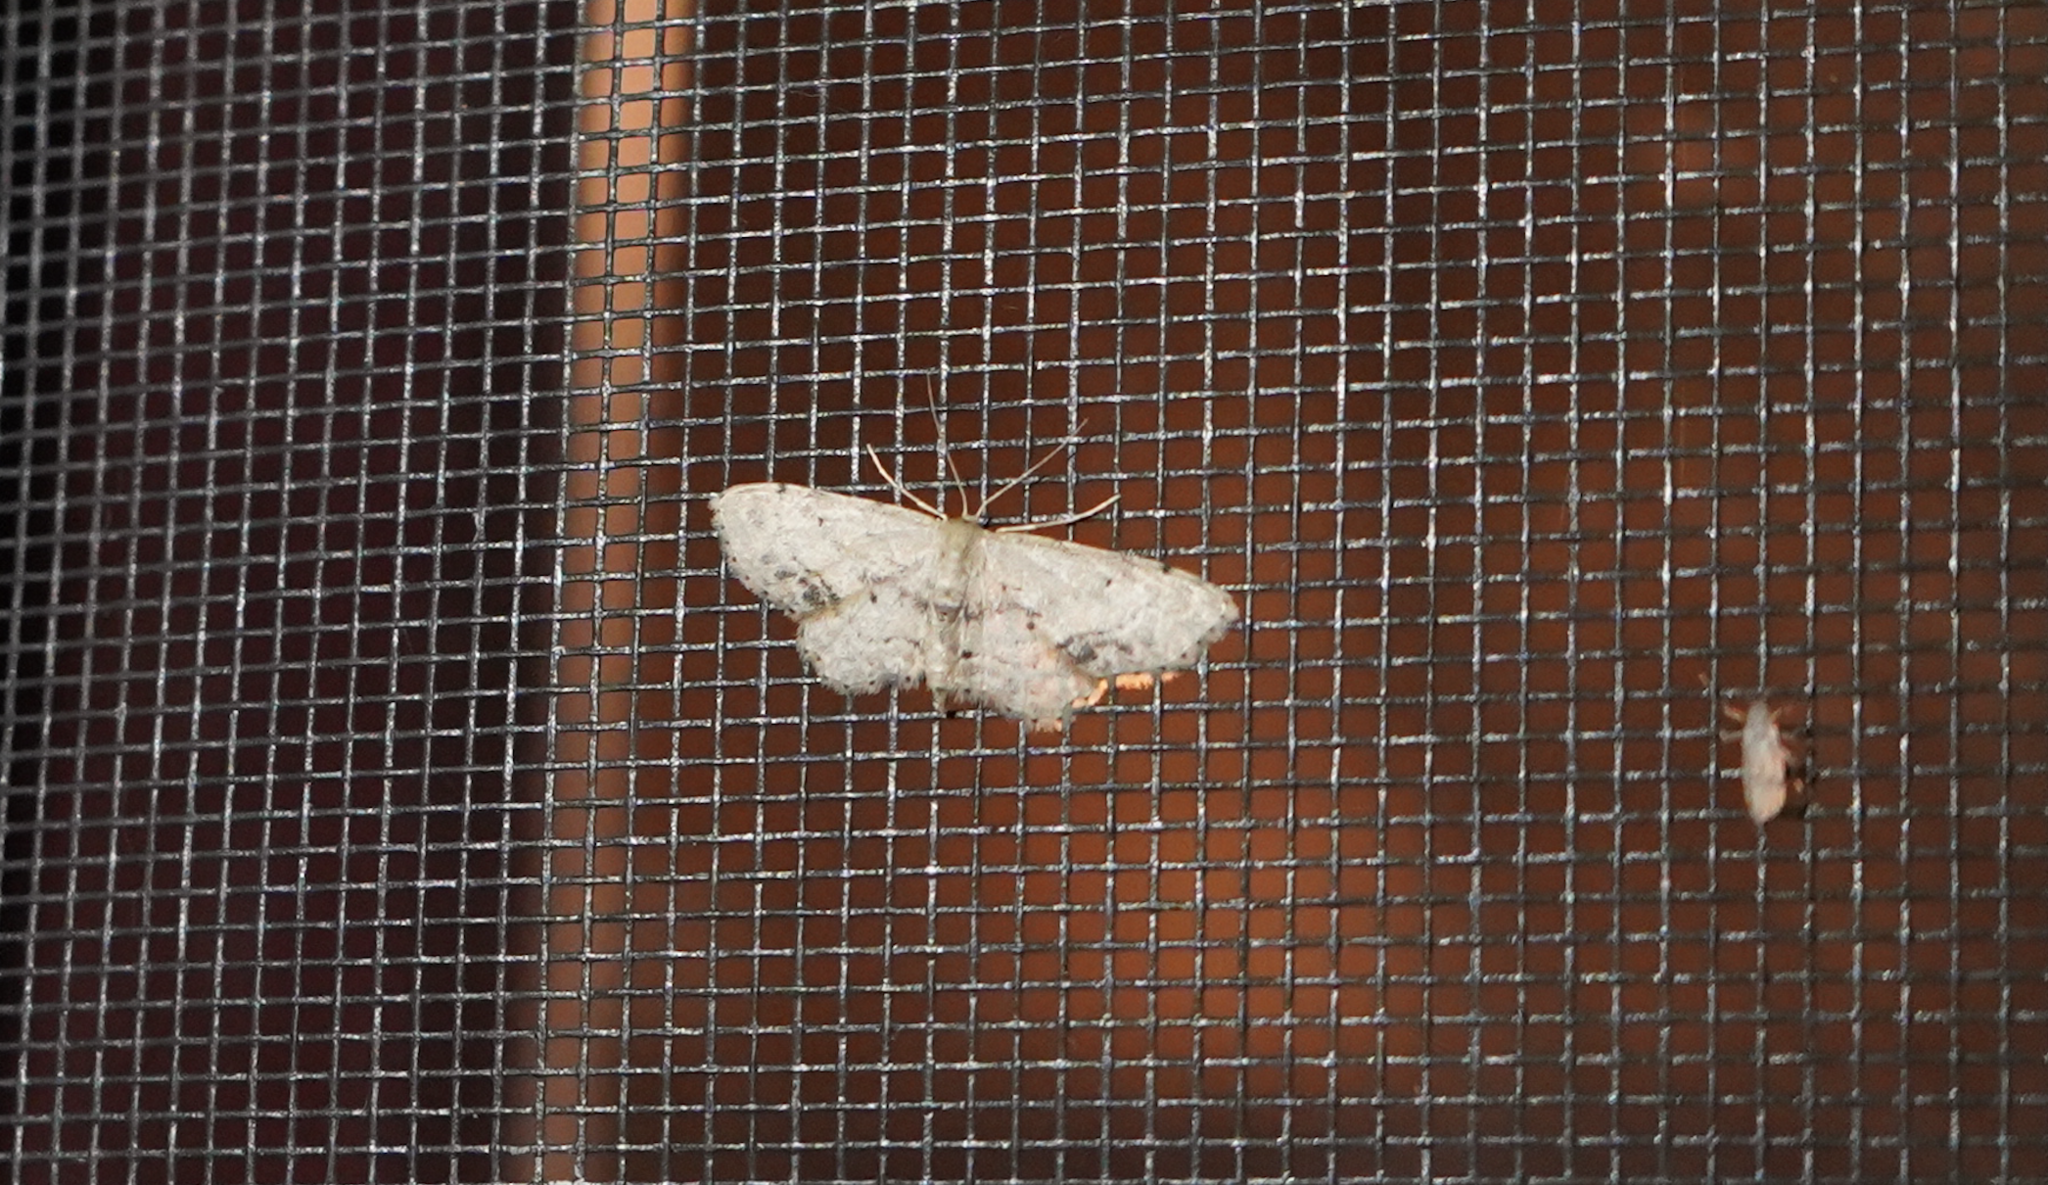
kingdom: Animalia
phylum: Arthropoda
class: Insecta
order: Lepidoptera
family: Geometridae
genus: Idaea
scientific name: Idaea dimidiata
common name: Single-dotted wave
